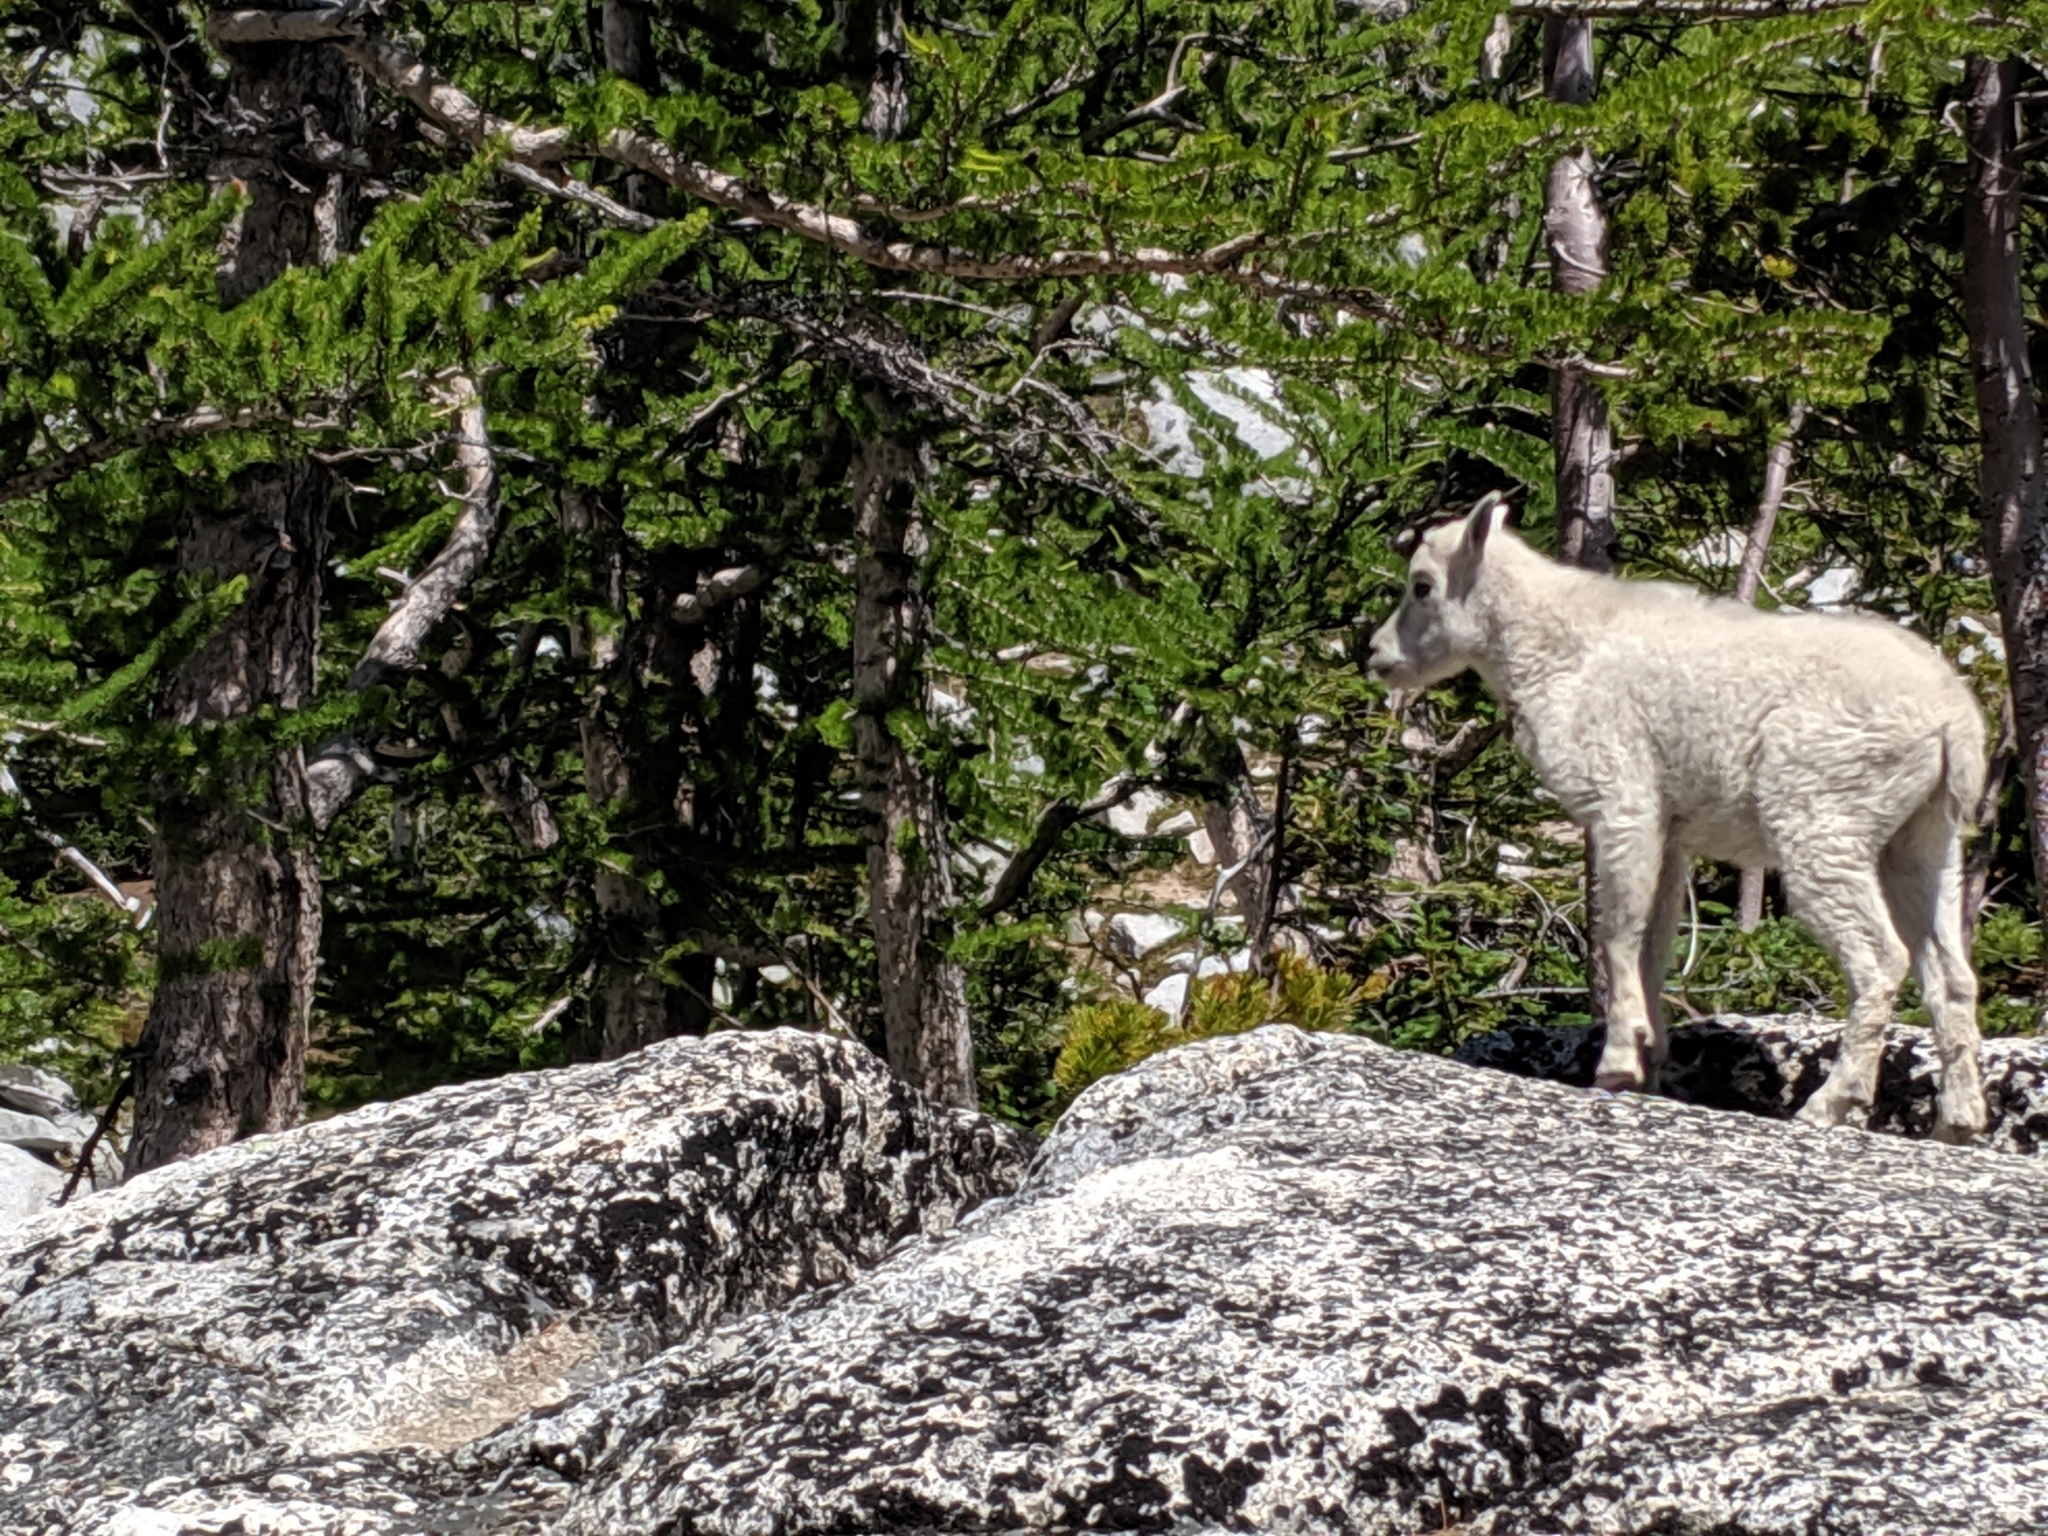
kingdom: Animalia
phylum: Chordata
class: Mammalia
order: Artiodactyla
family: Bovidae
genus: Oreamnos
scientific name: Oreamnos americanus
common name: Mountain goat
